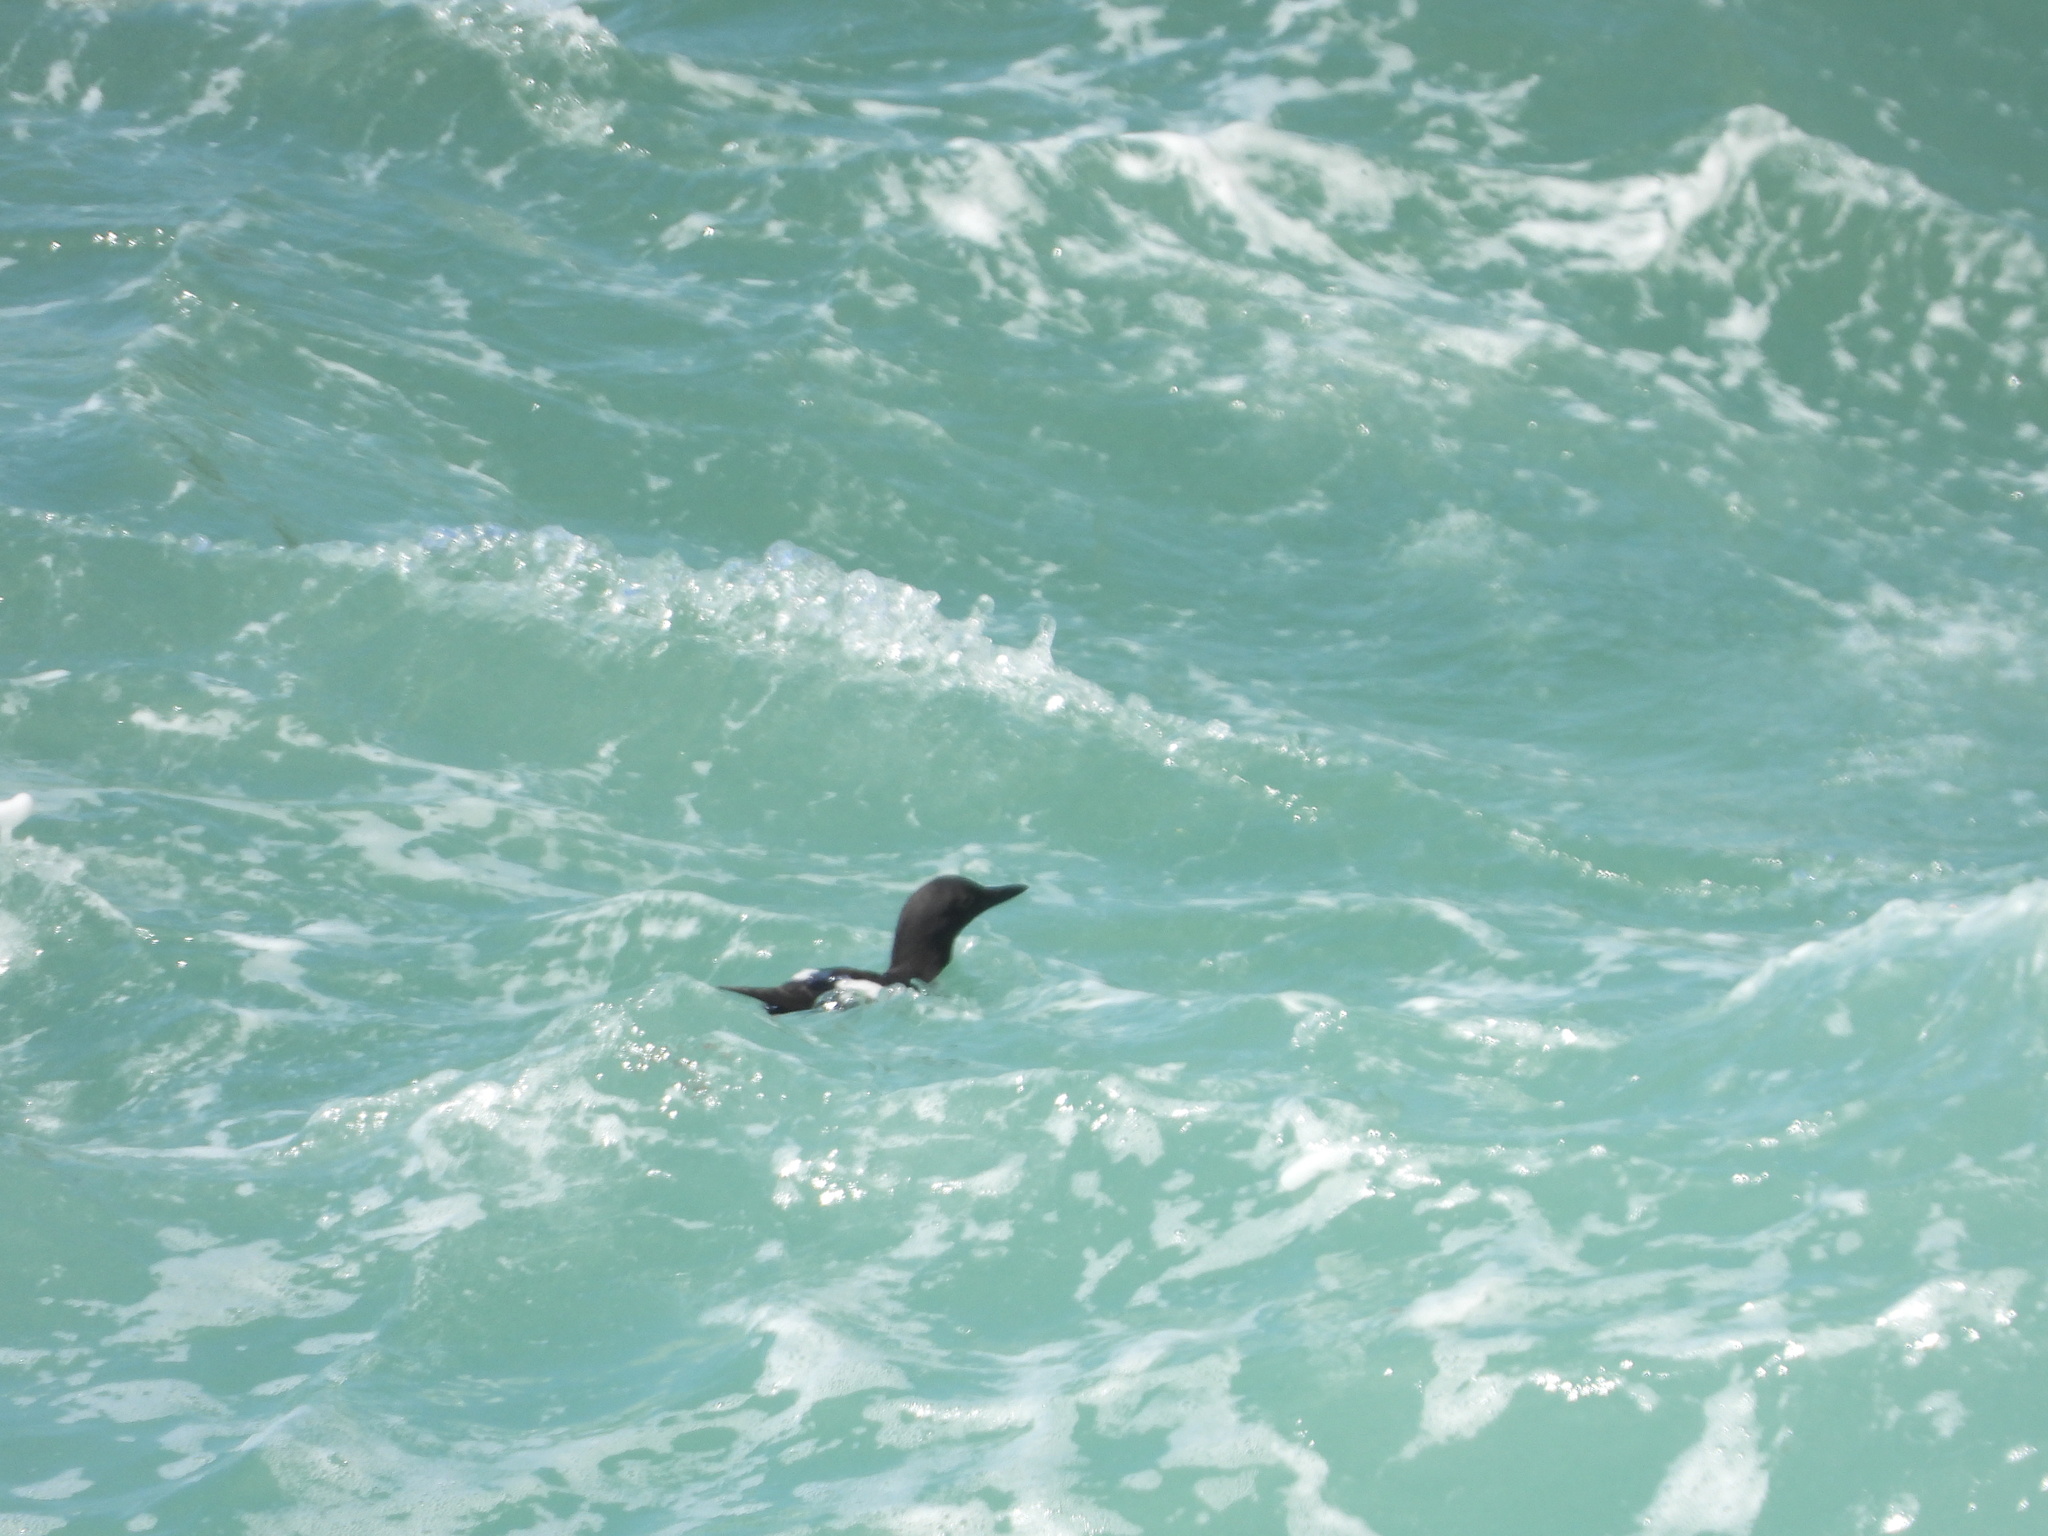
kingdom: Animalia
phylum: Chordata
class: Aves
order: Charadriiformes
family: Alcidae
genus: Cepphus
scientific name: Cepphus columba
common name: Pigeon guillemot
